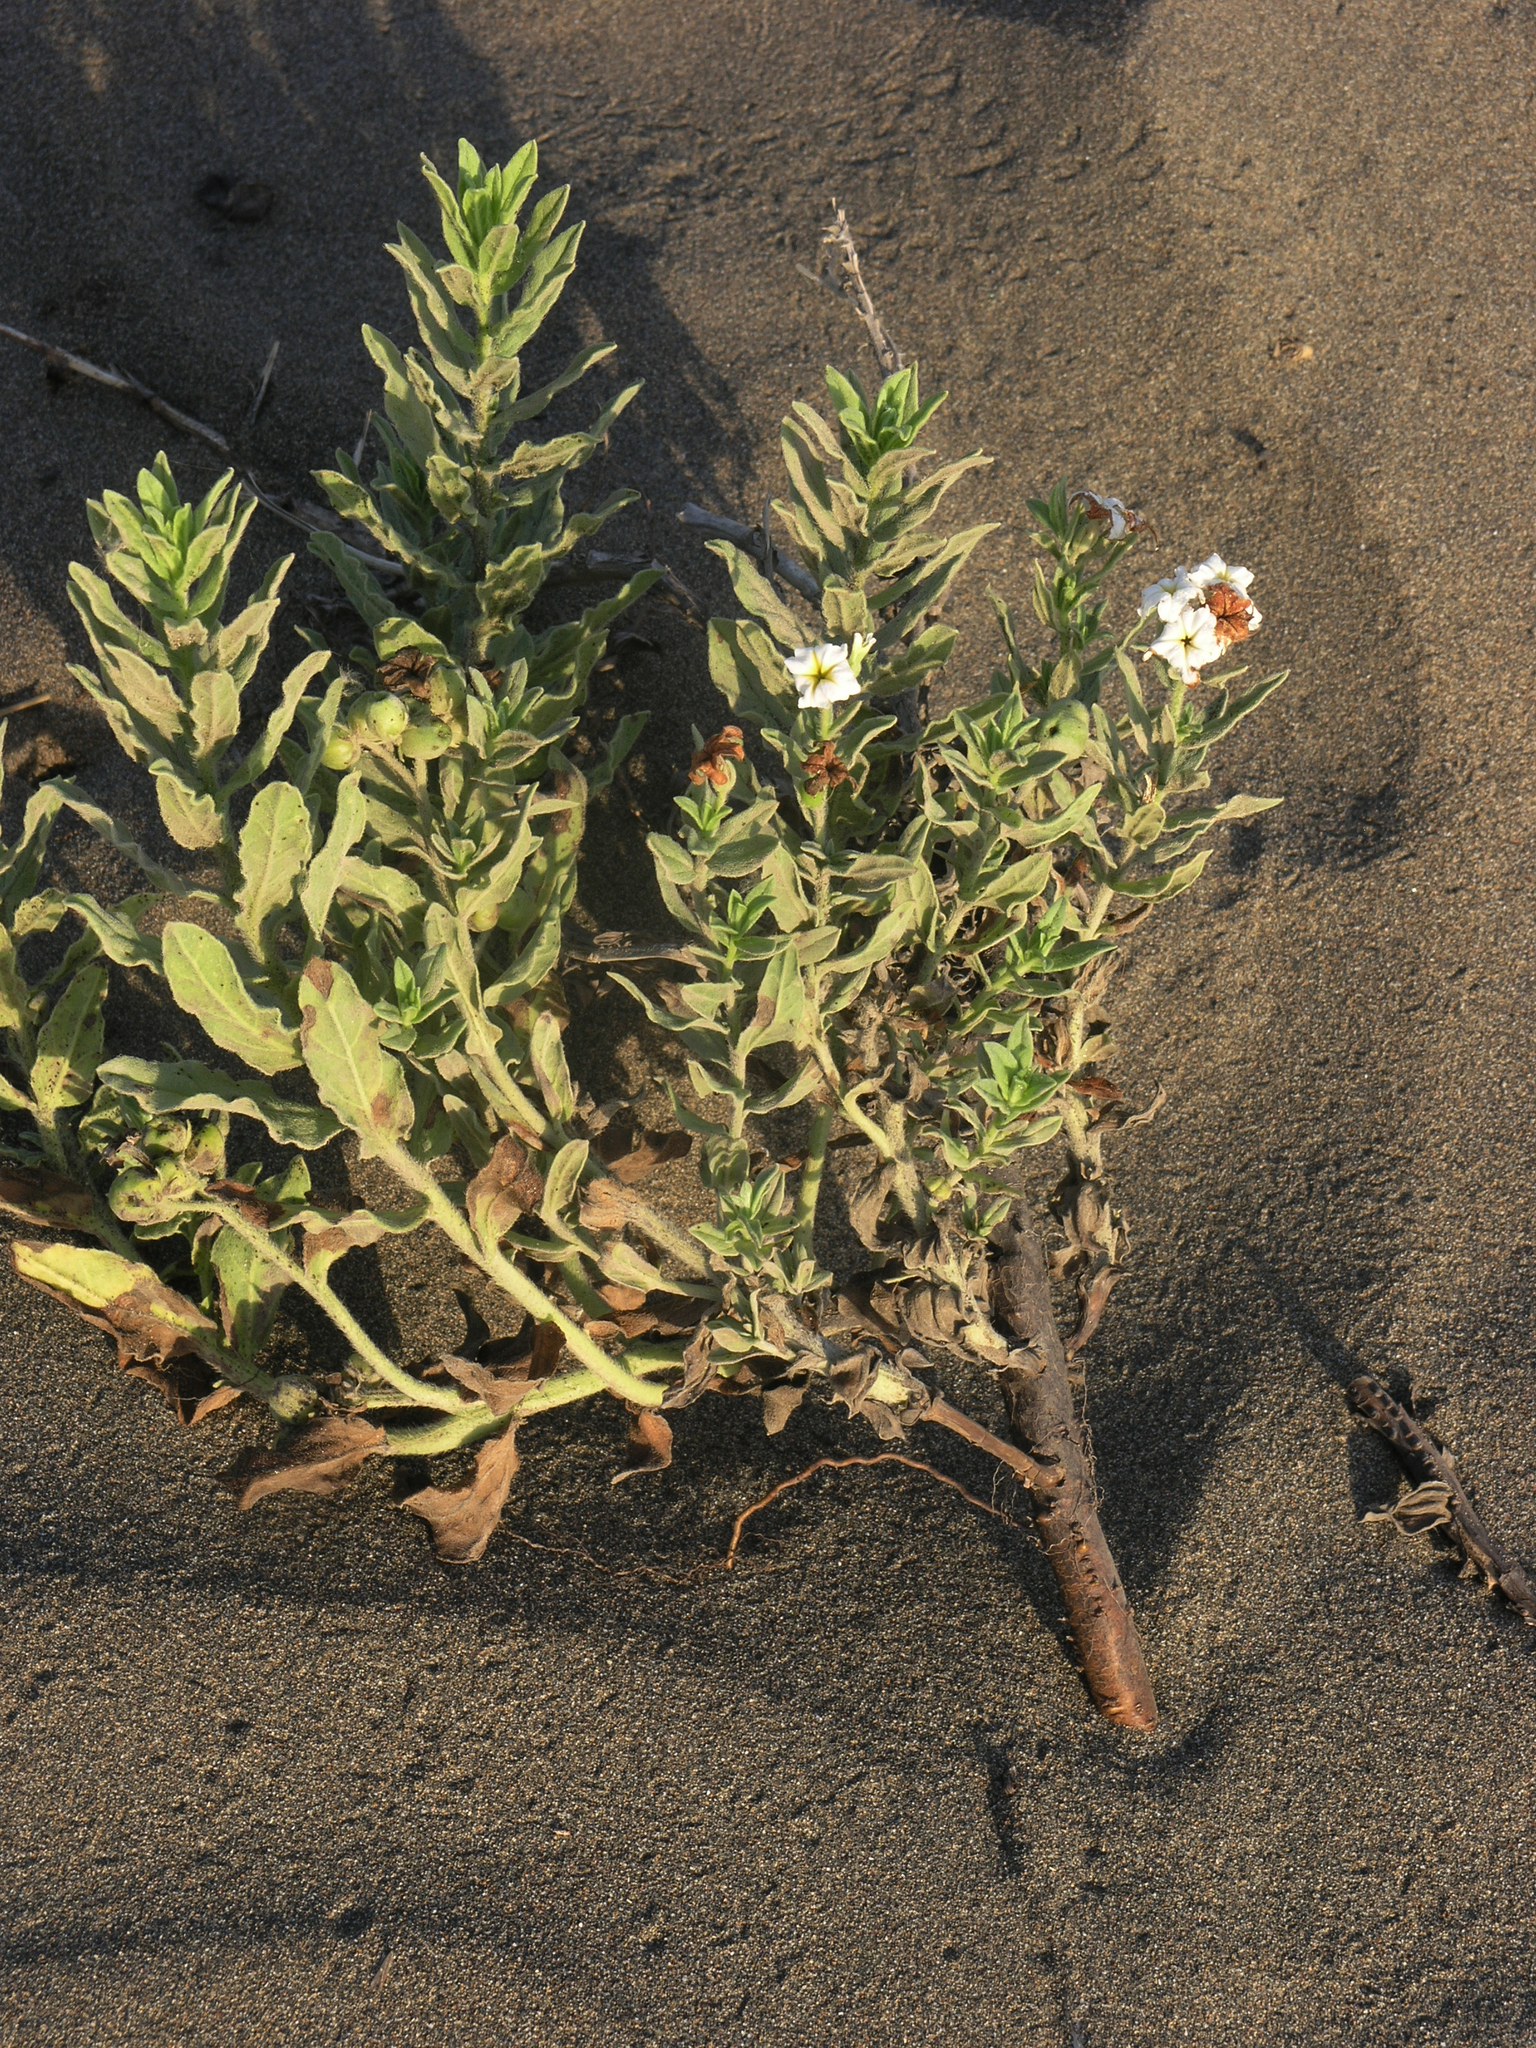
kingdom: Plantae
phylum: Tracheophyta
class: Magnoliopsida
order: Boraginales
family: Heliotropiaceae
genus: Tournefortia
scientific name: Tournefortia sibirica
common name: Siberian sea rosemary
